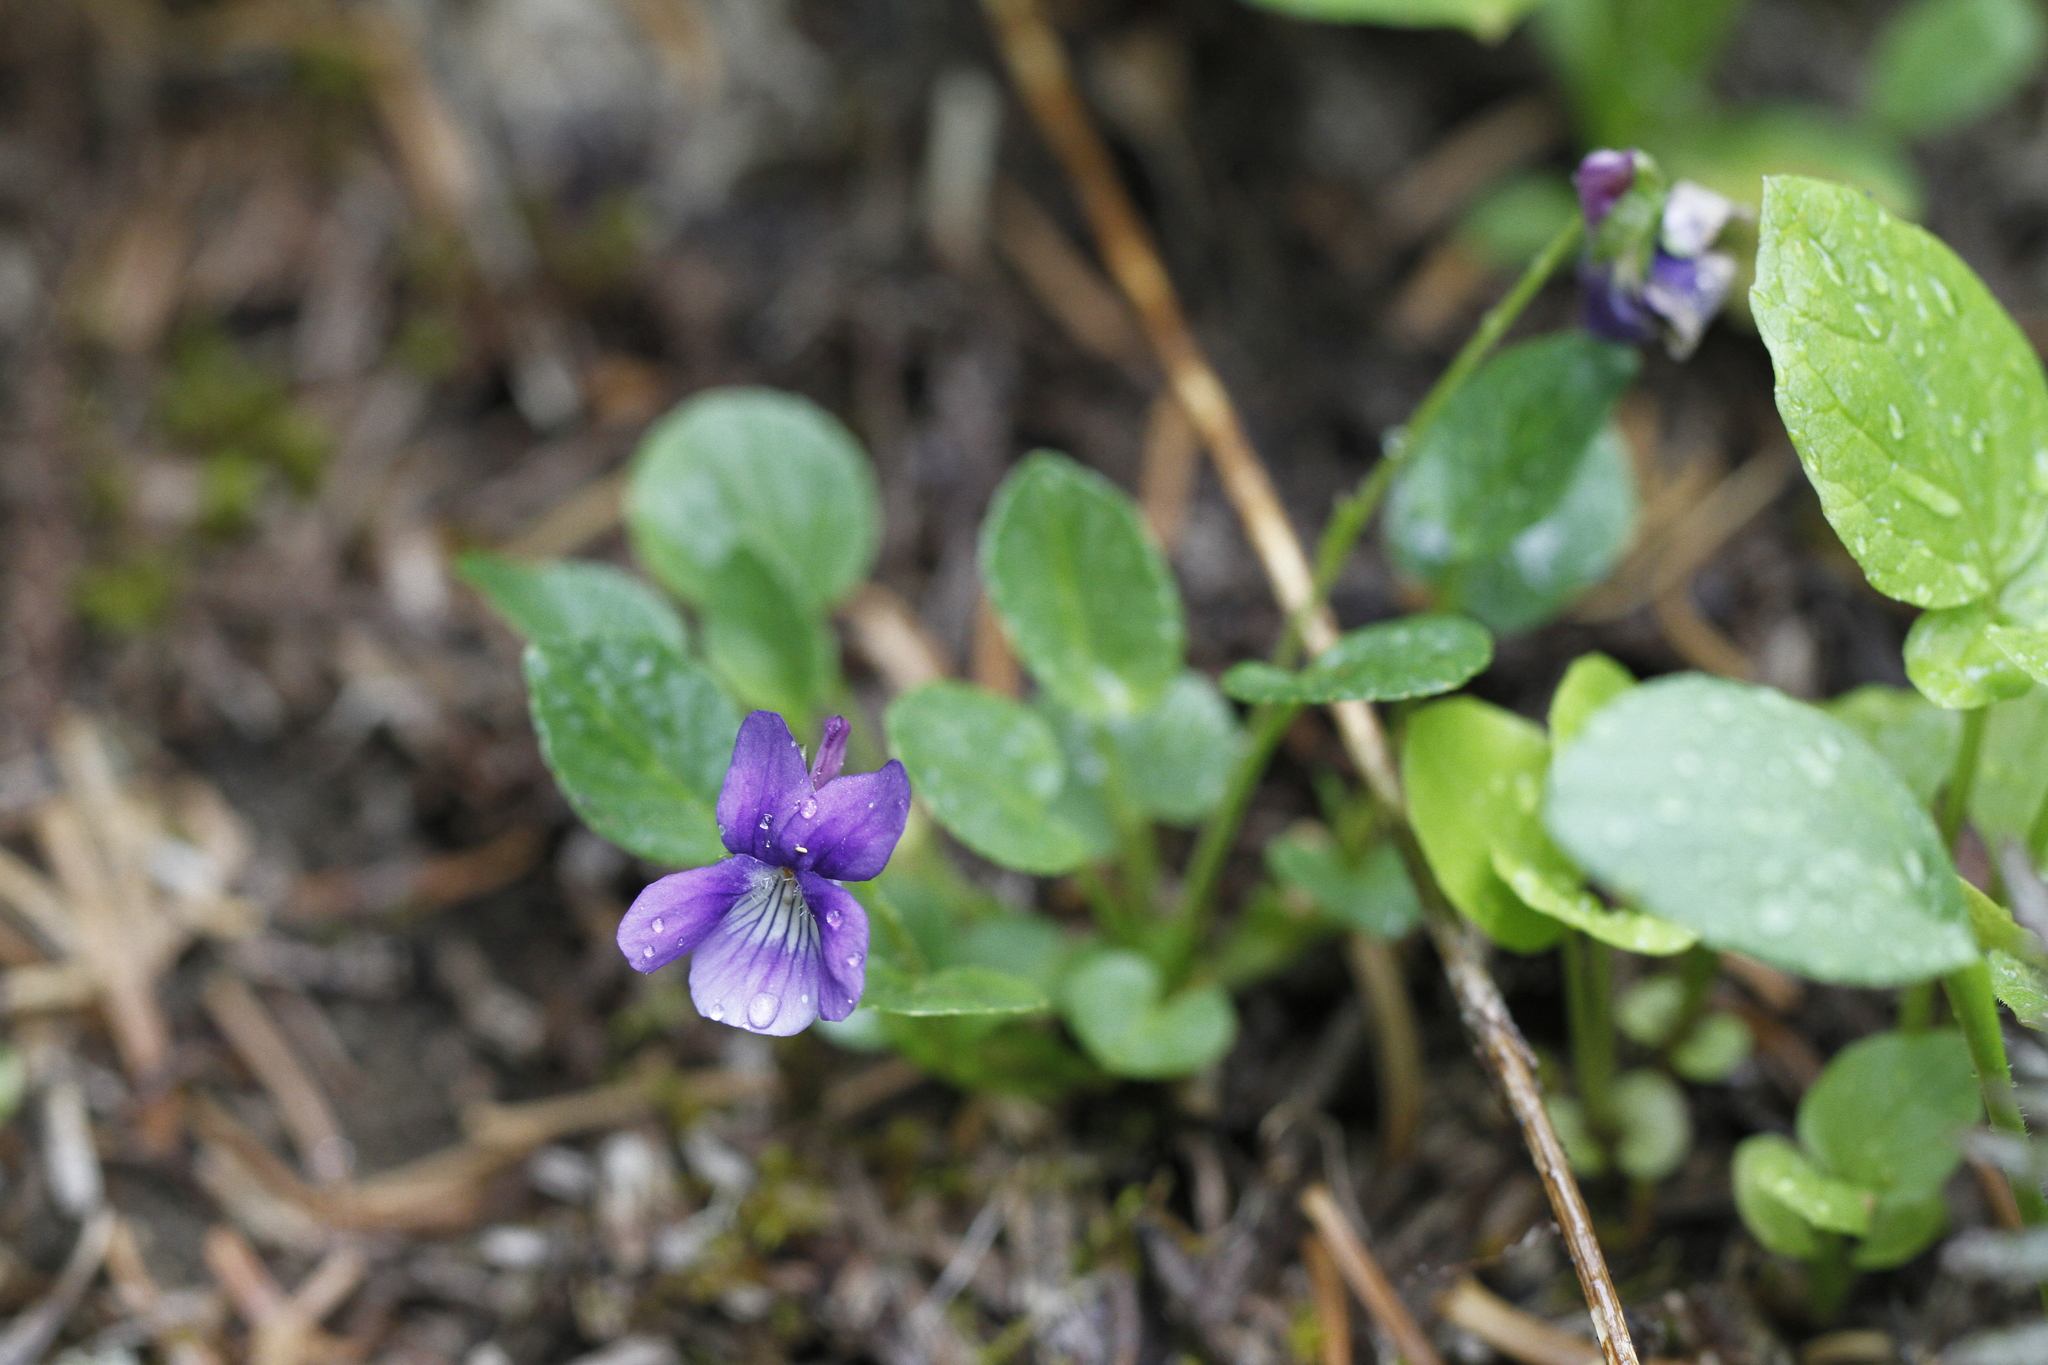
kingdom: Plantae
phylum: Tracheophyta
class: Magnoliopsida
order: Malpighiales
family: Violaceae
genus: Viola
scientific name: Viola adunca
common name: Sand violet
